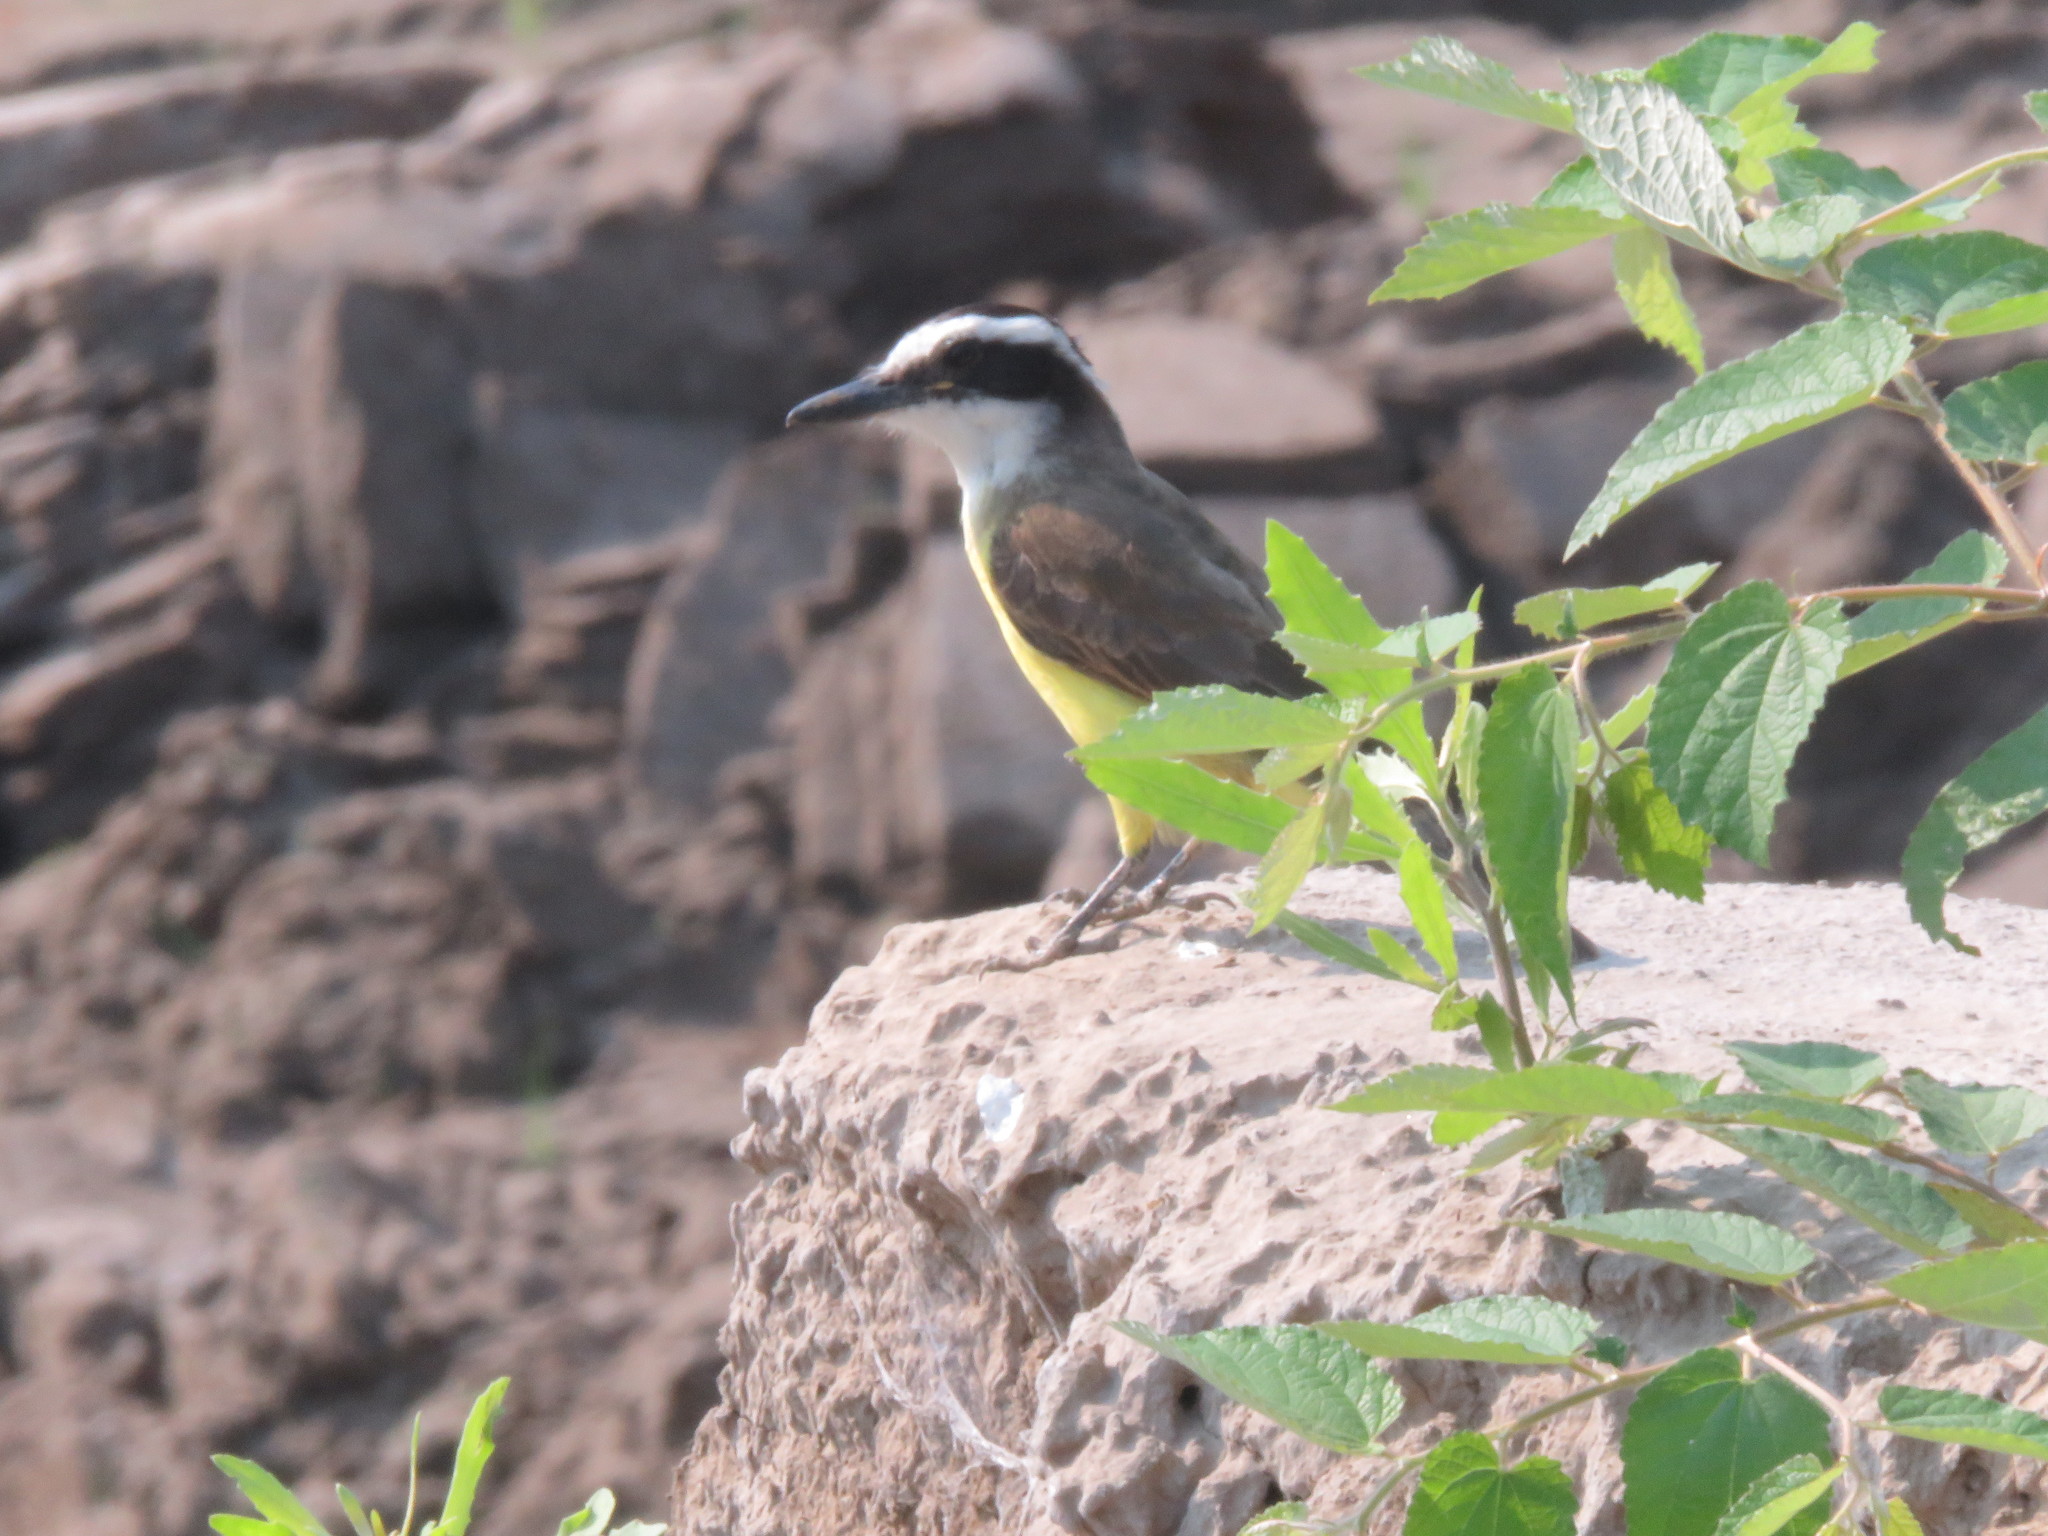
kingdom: Animalia
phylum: Chordata
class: Aves
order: Passeriformes
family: Tyrannidae
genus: Pitangus
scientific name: Pitangus sulphuratus
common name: Great kiskadee
